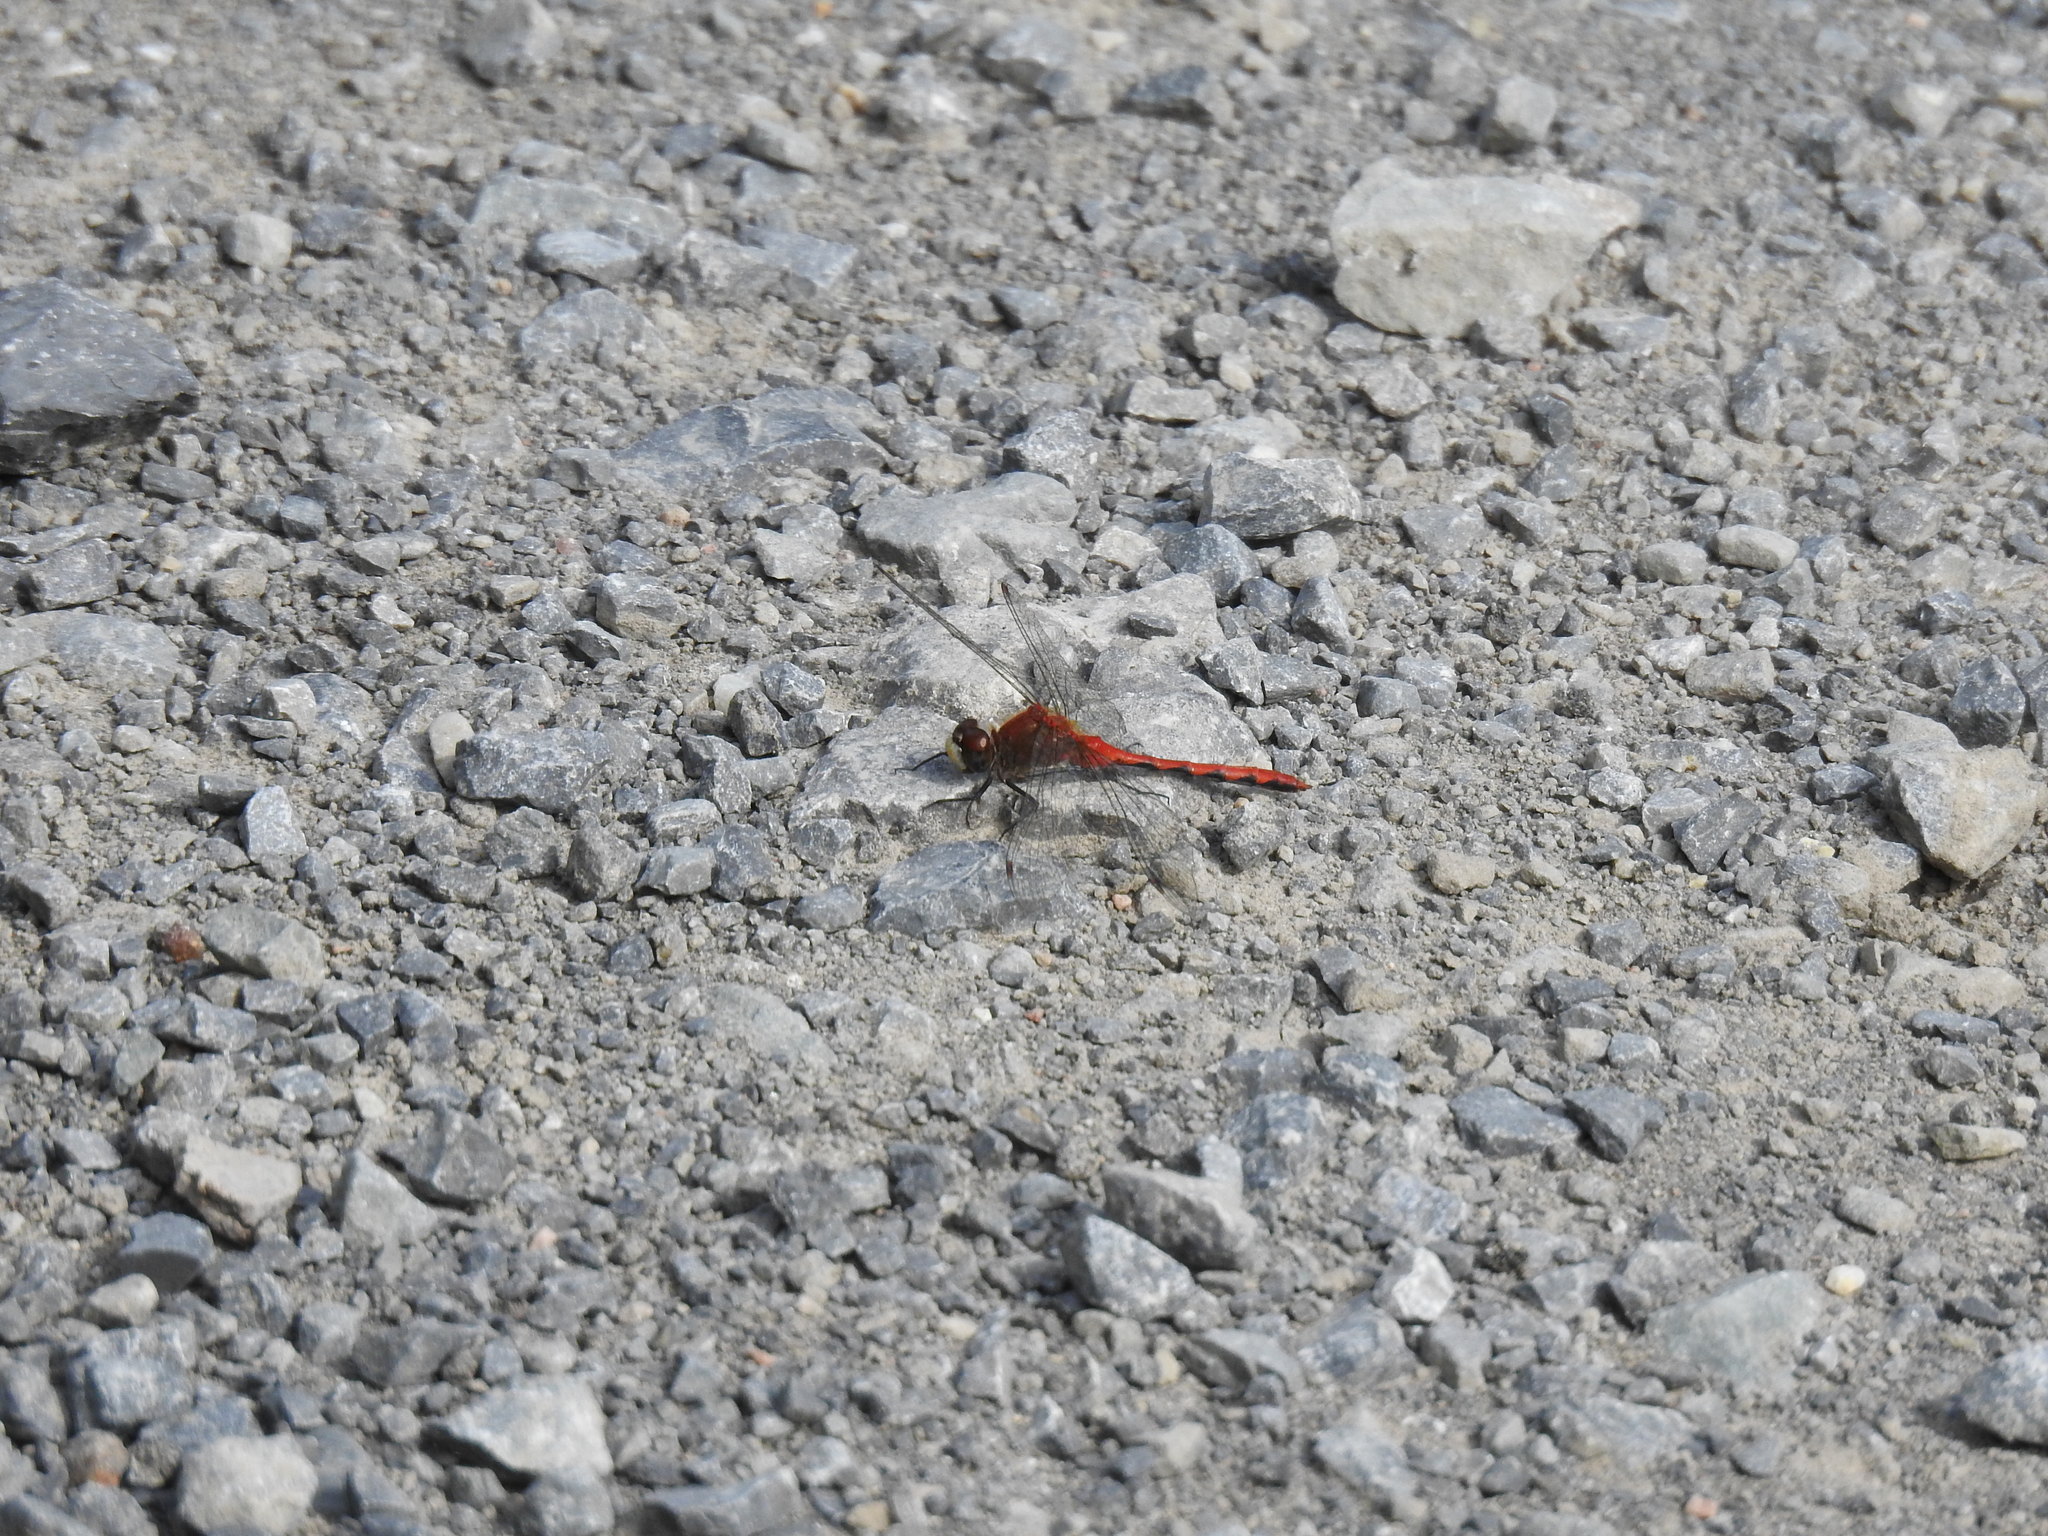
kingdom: Animalia
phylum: Arthropoda
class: Insecta
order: Odonata
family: Libellulidae
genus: Sympetrum
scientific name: Sympetrum obtrusum
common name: White-faced meadowhawk
